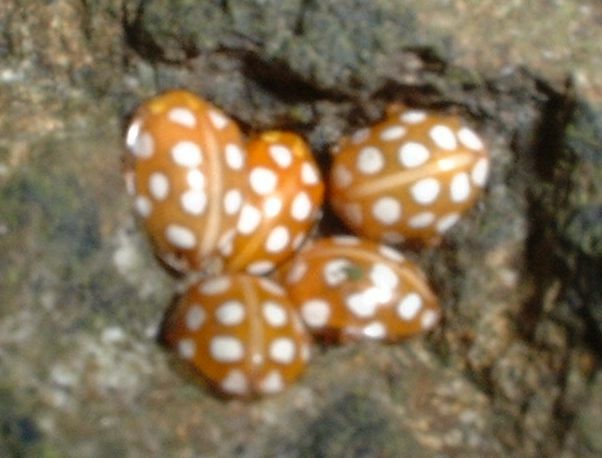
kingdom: Animalia
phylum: Arthropoda
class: Insecta
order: Coleoptera
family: Coccinellidae
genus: Halyzia
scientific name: Halyzia sedecimguttata
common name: Orange ladybird
